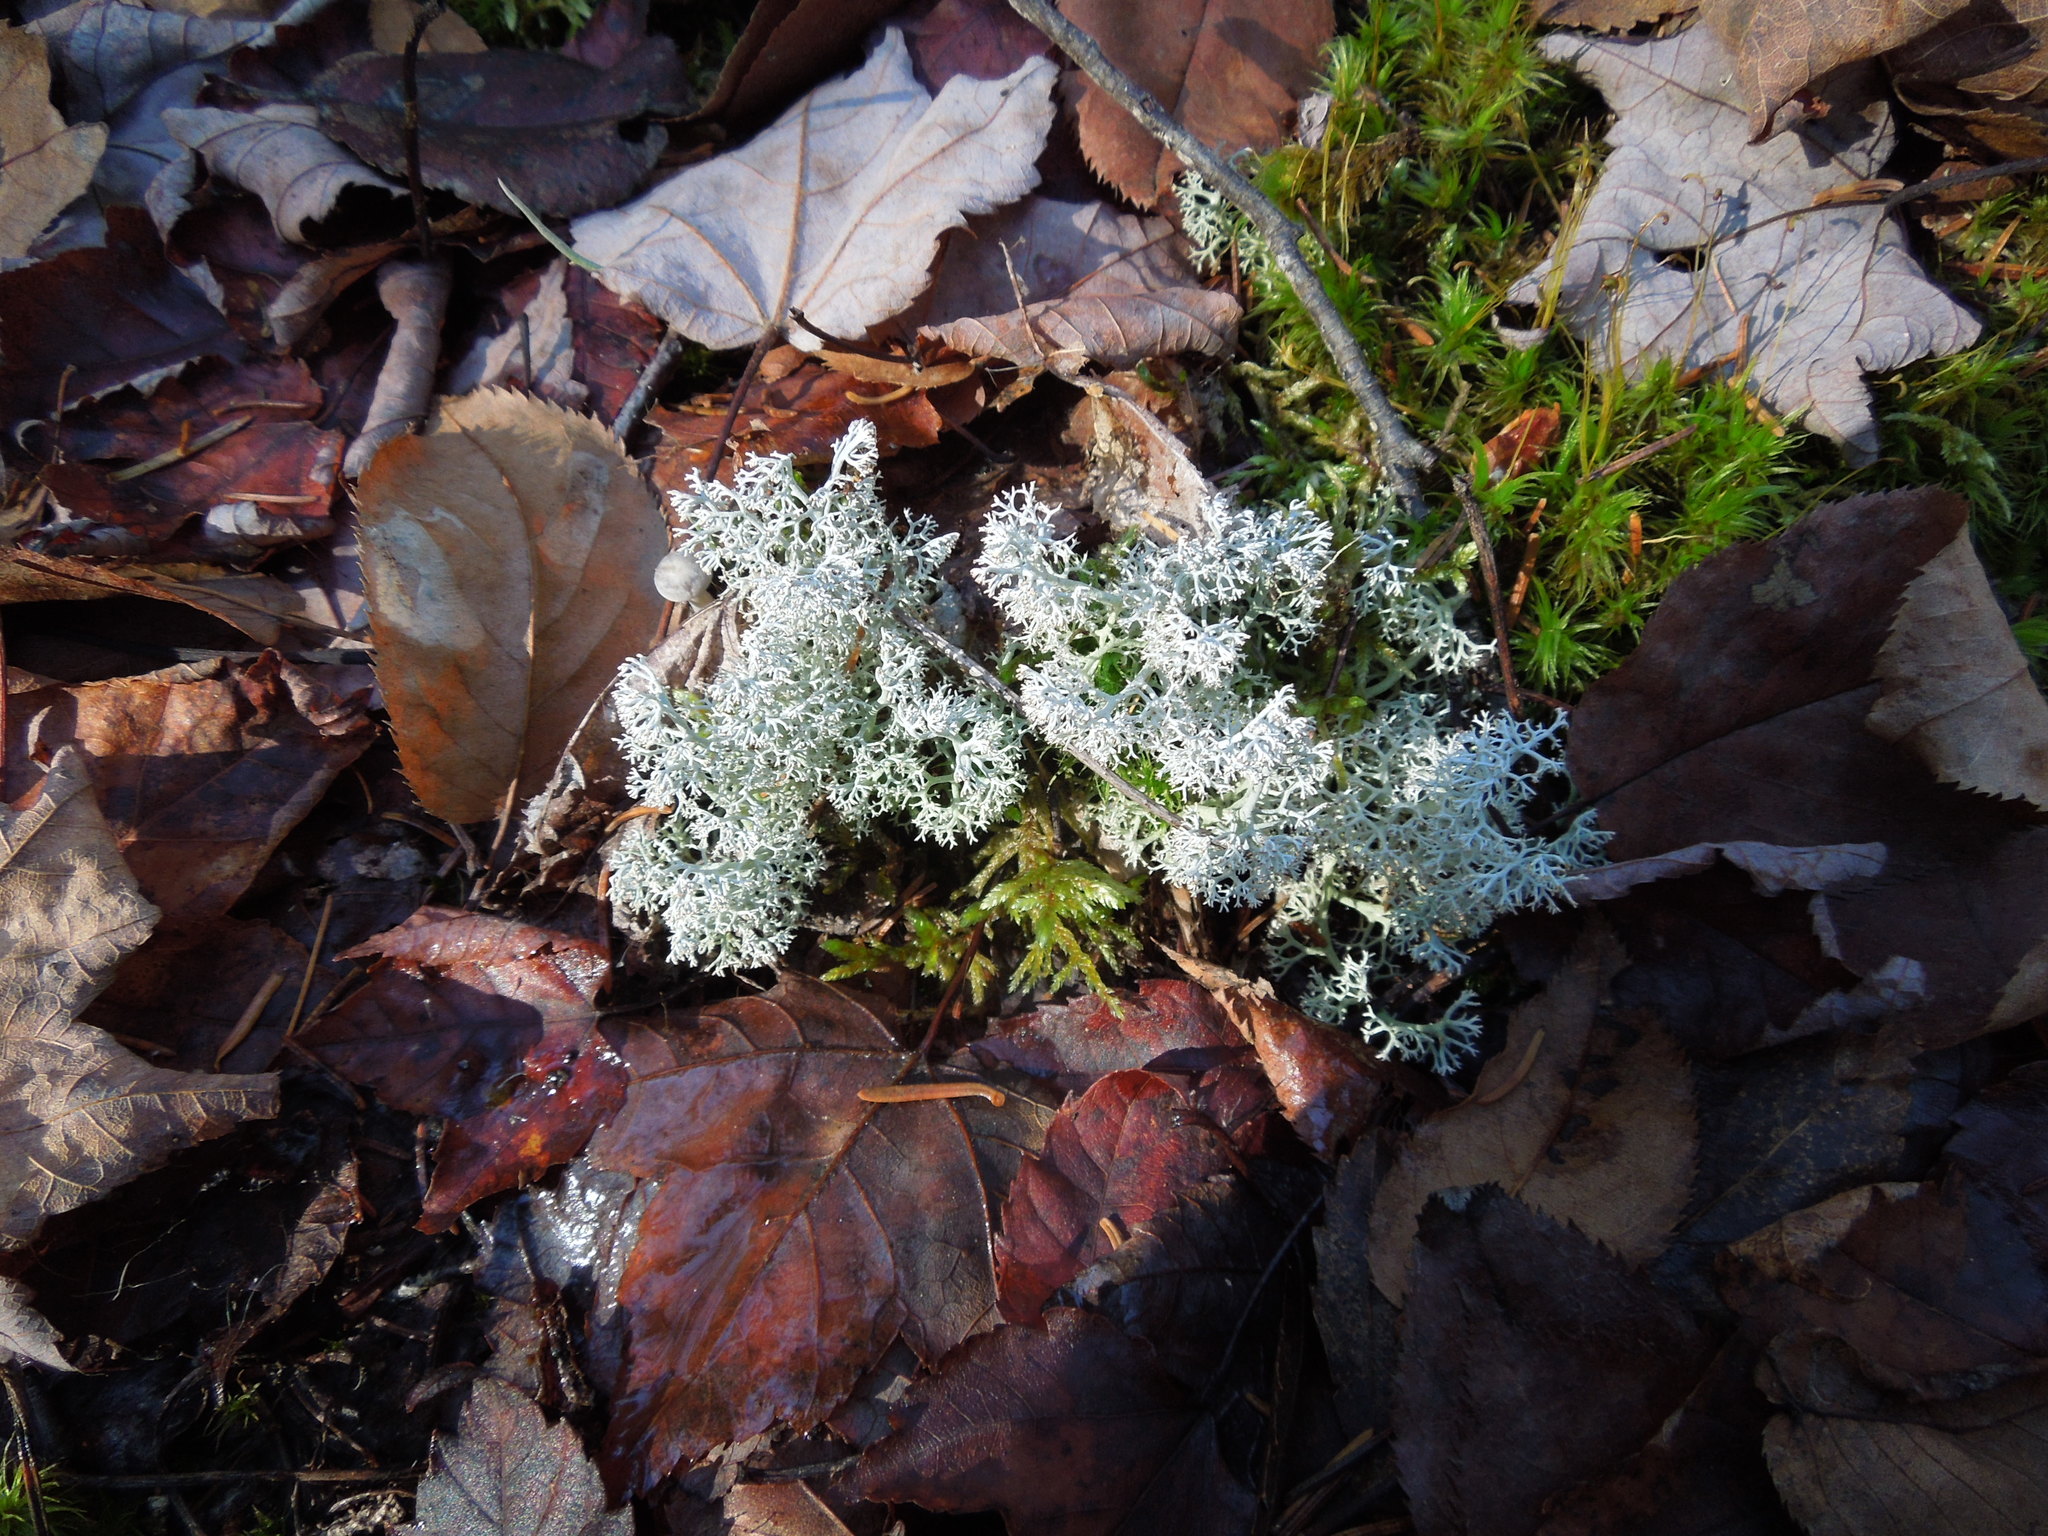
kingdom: Fungi
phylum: Ascomycota
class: Lecanoromycetes
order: Lecanorales
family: Cladoniaceae
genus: Cladonia
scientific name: Cladonia stellaris
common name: Star-tipped reindeer lichen
